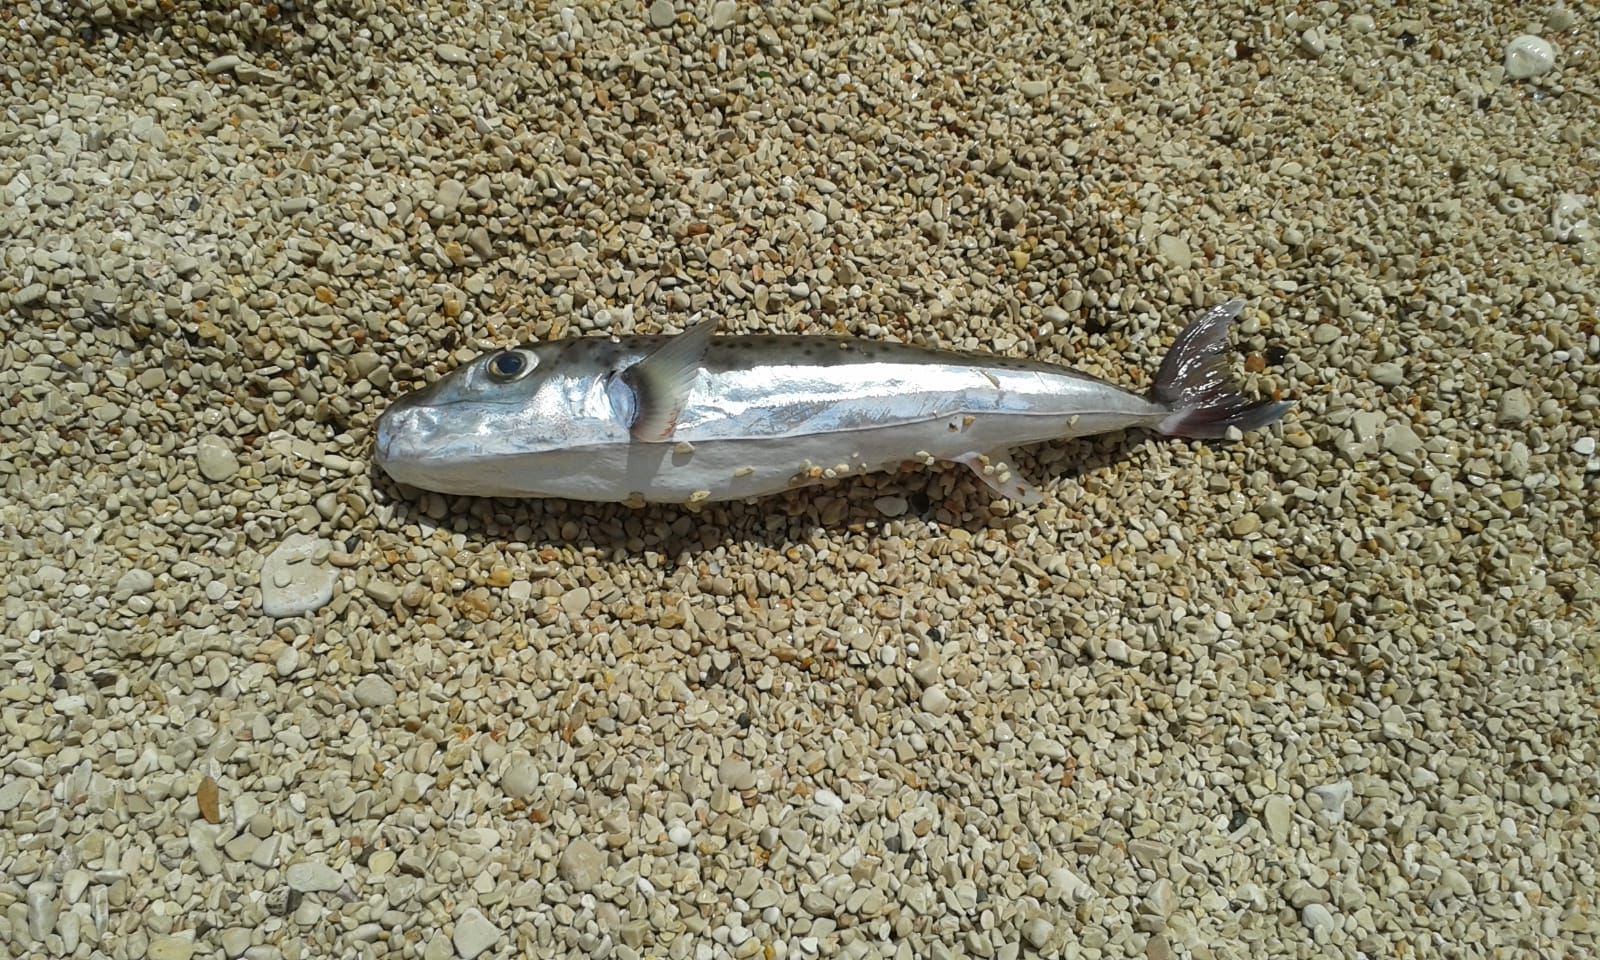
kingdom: Animalia
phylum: Chordata
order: Tetraodontiformes
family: Tetraodontidae
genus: Lagocephalus
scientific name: Lagocephalus sceleratus
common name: Silverstripe blaasop
